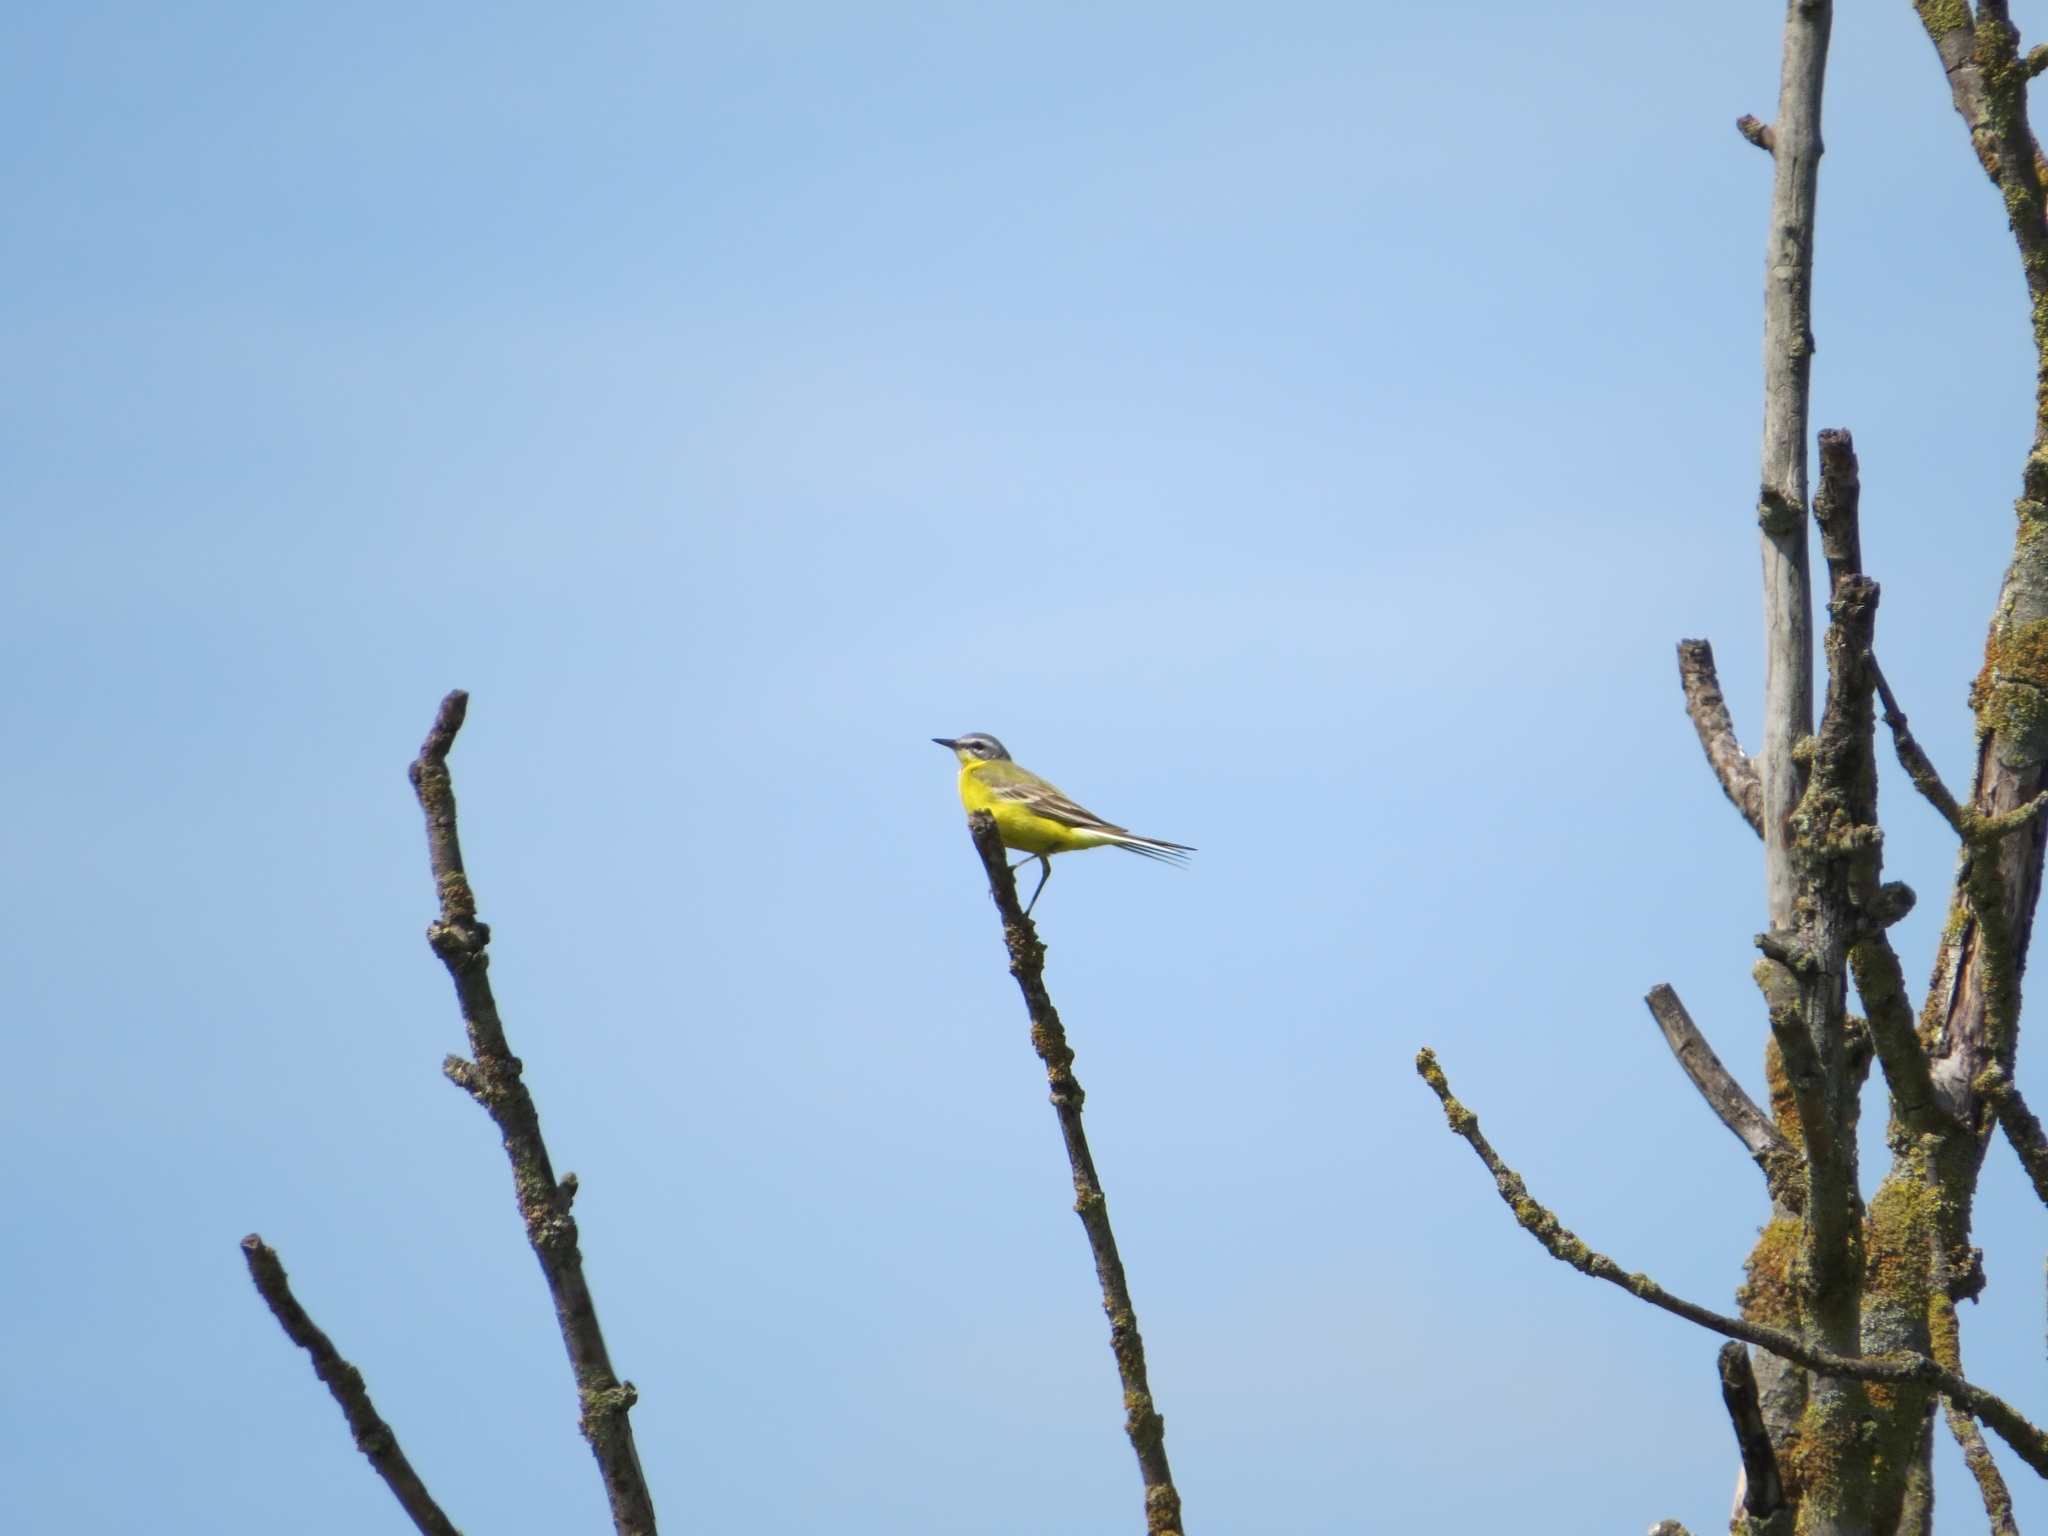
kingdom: Animalia
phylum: Chordata
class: Aves
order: Passeriformes
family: Motacillidae
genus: Motacilla
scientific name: Motacilla flava
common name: Western yellow wagtail
